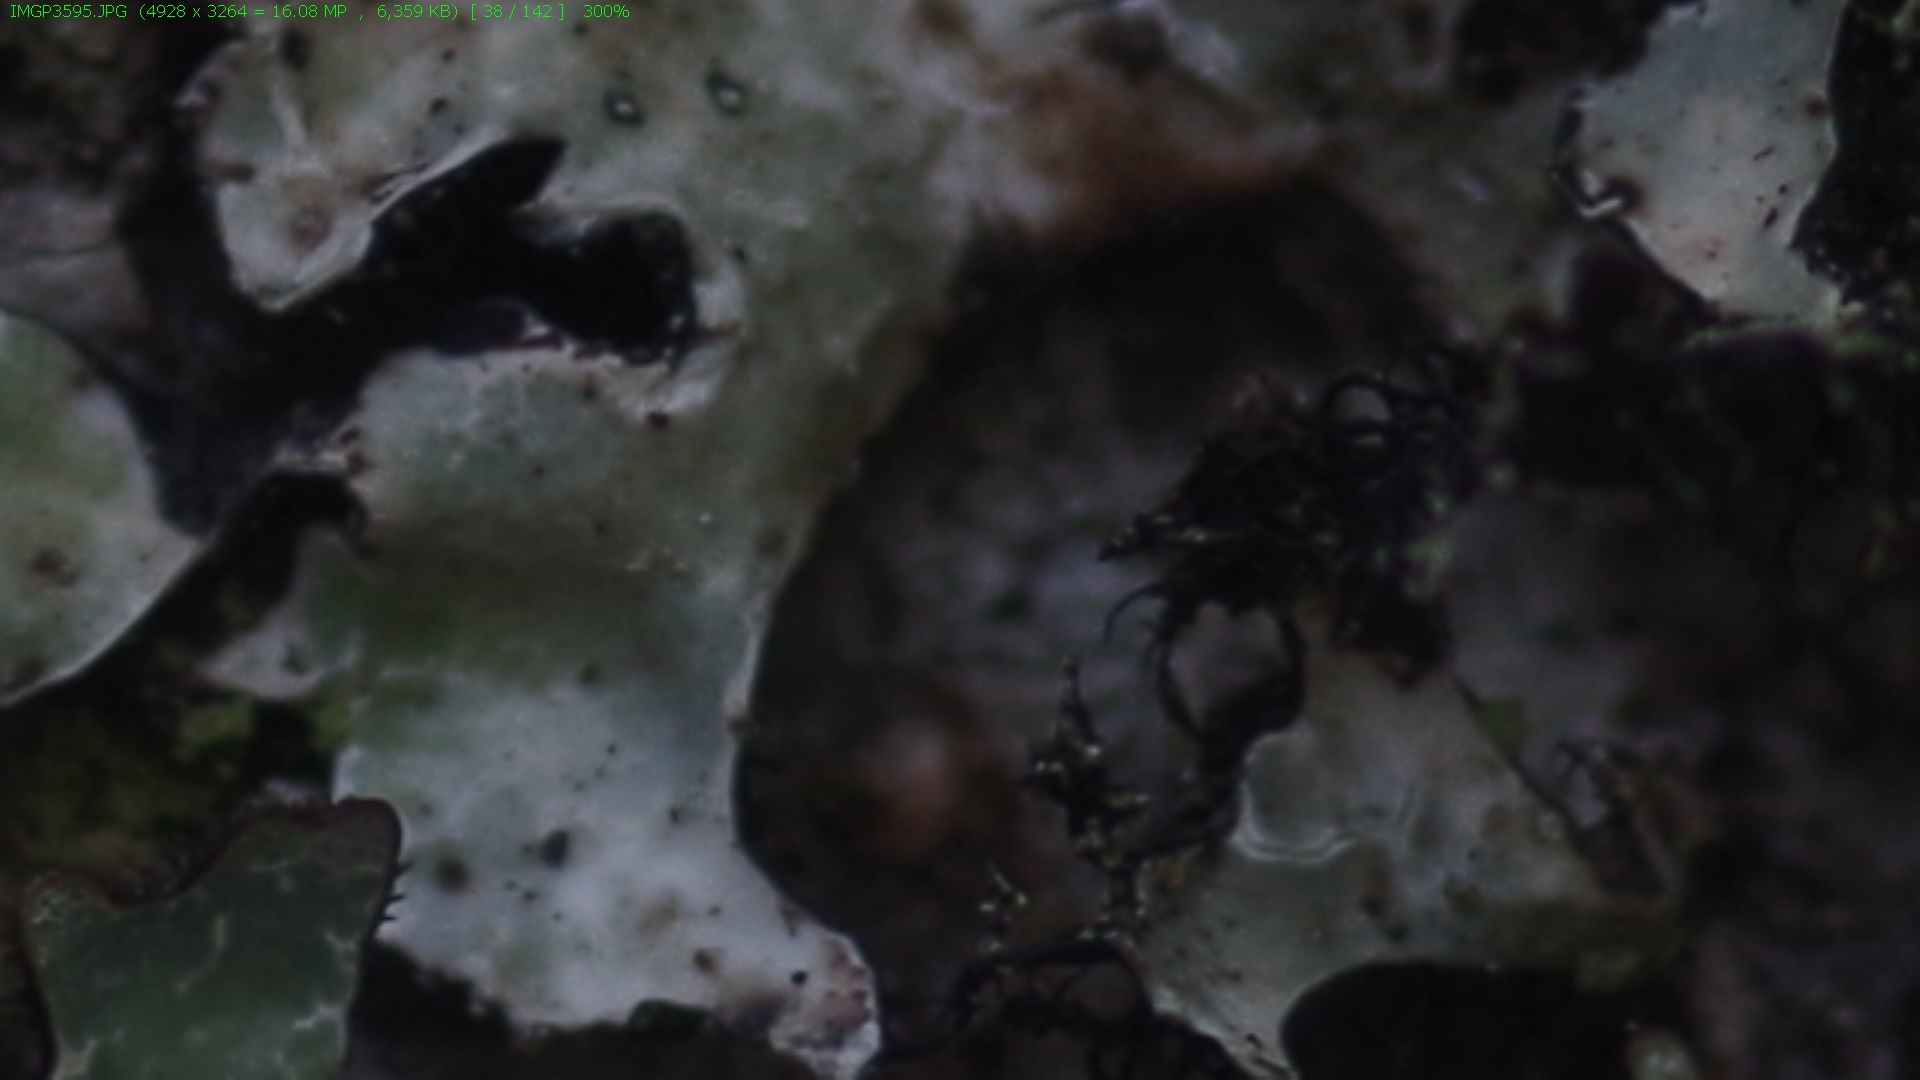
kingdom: Fungi
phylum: Ascomycota
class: Lecanoromycetes
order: Lecanorales
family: Parmeliaceae
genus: Parmelia
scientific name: Parmelia sulcata
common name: Netted shield lichen
